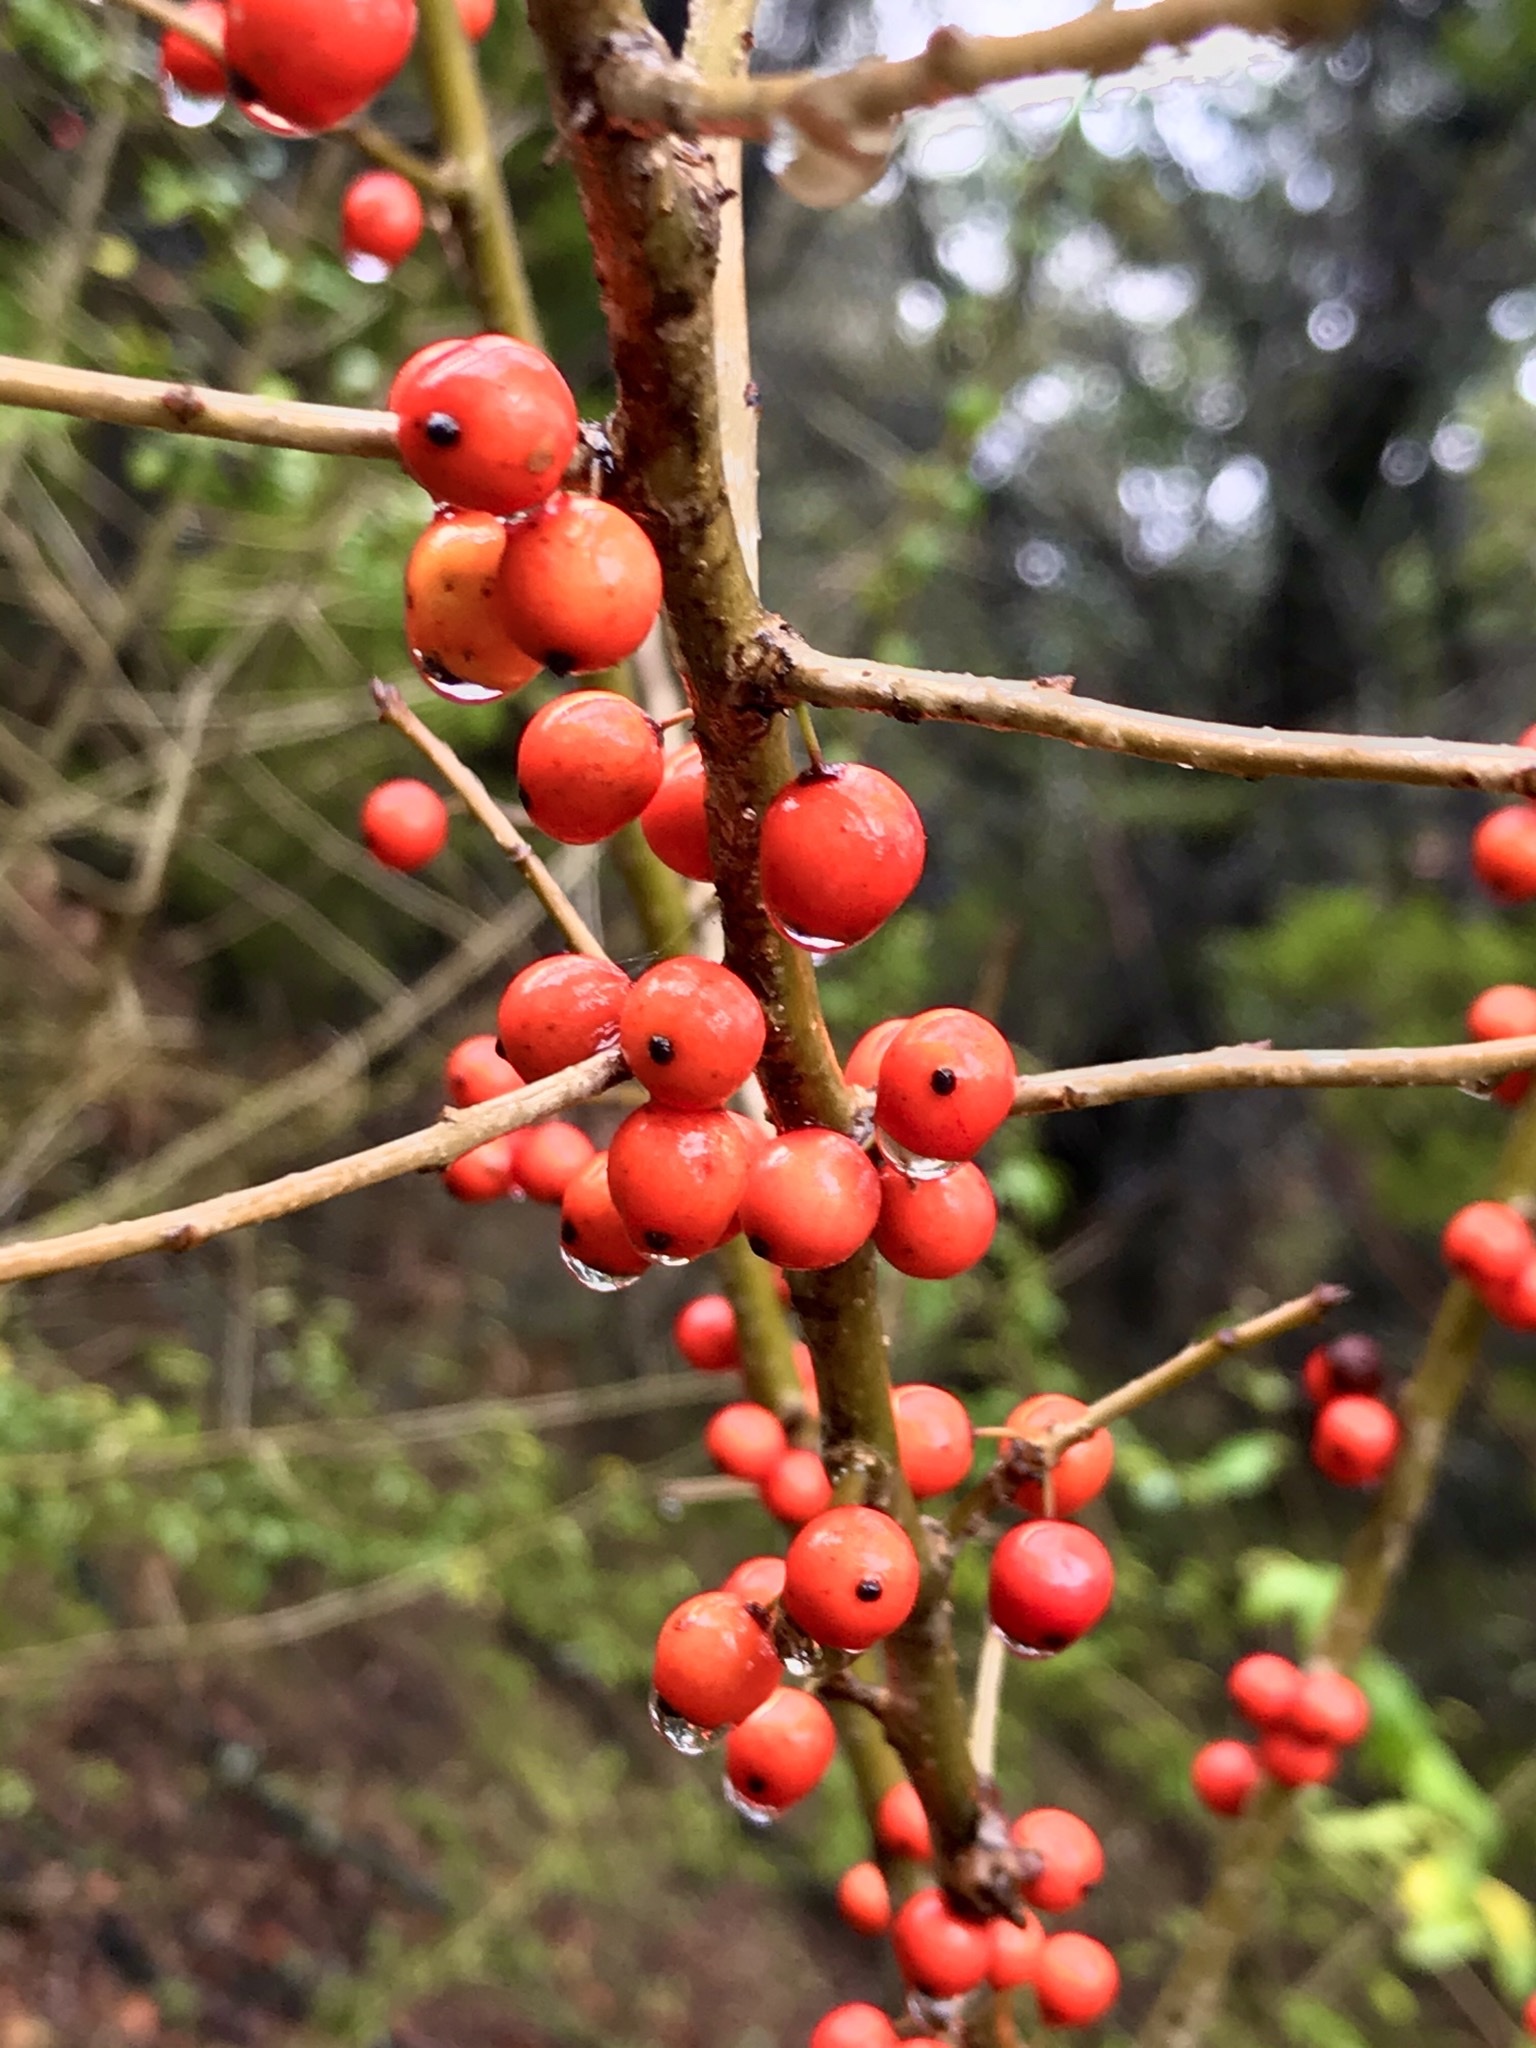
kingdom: Plantae
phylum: Tracheophyta
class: Magnoliopsida
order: Aquifoliales
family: Aquifoliaceae
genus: Ilex
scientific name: Ilex decidua
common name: Possum-haw
